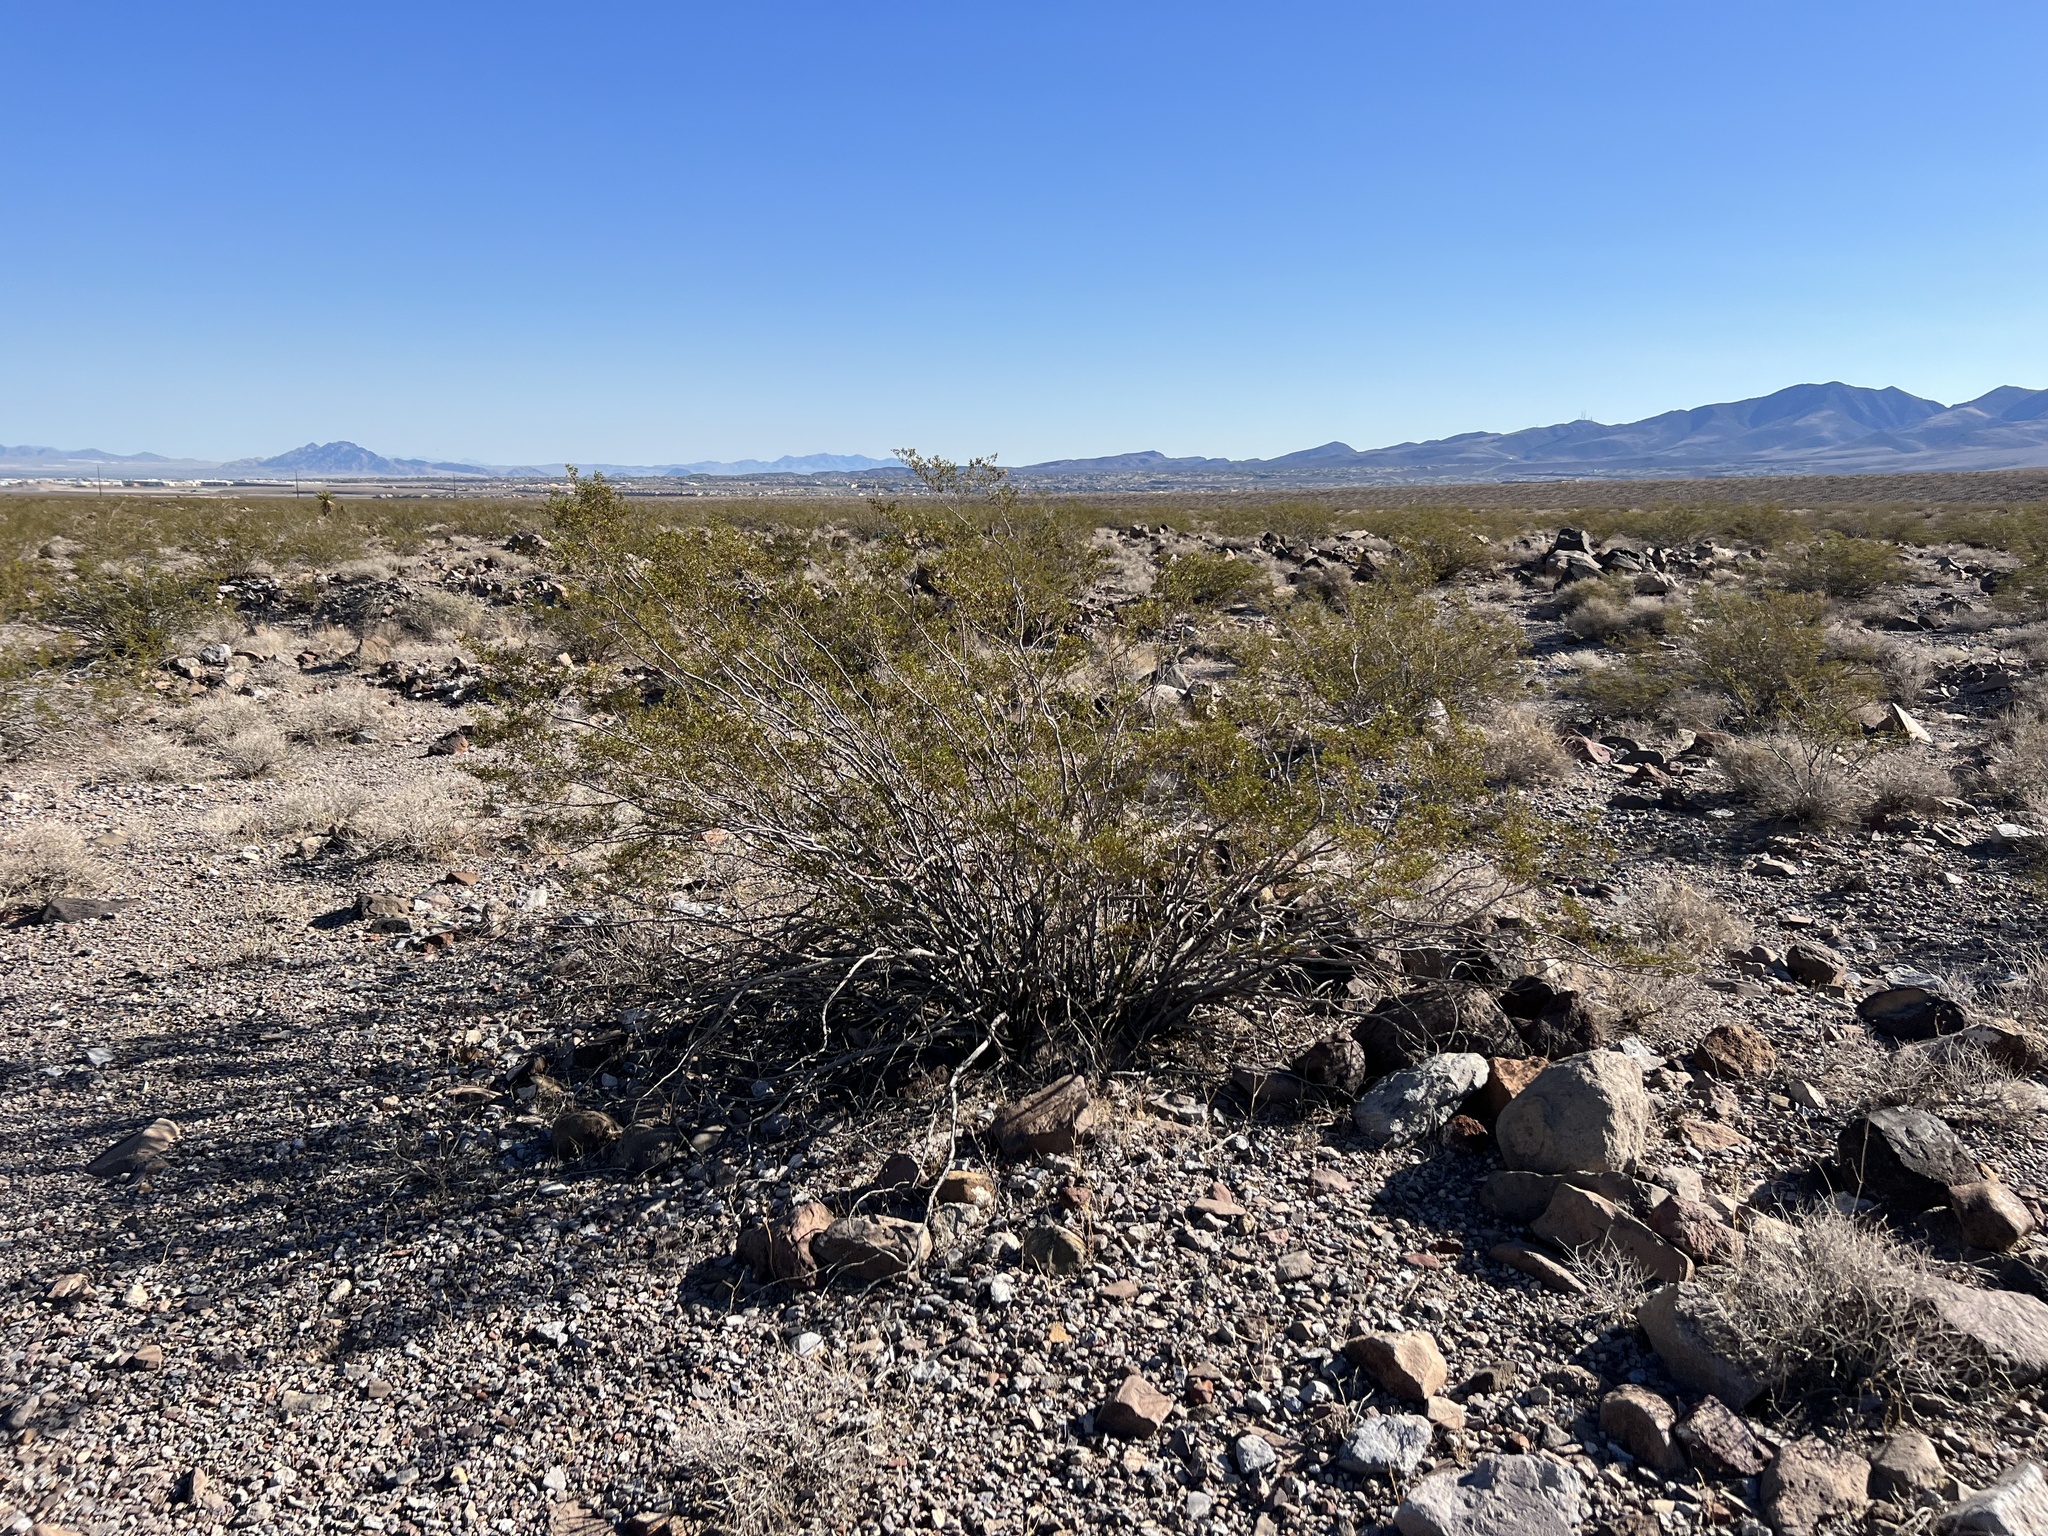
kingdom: Plantae
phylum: Tracheophyta
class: Magnoliopsida
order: Zygophyllales
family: Zygophyllaceae
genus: Larrea
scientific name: Larrea tridentata
